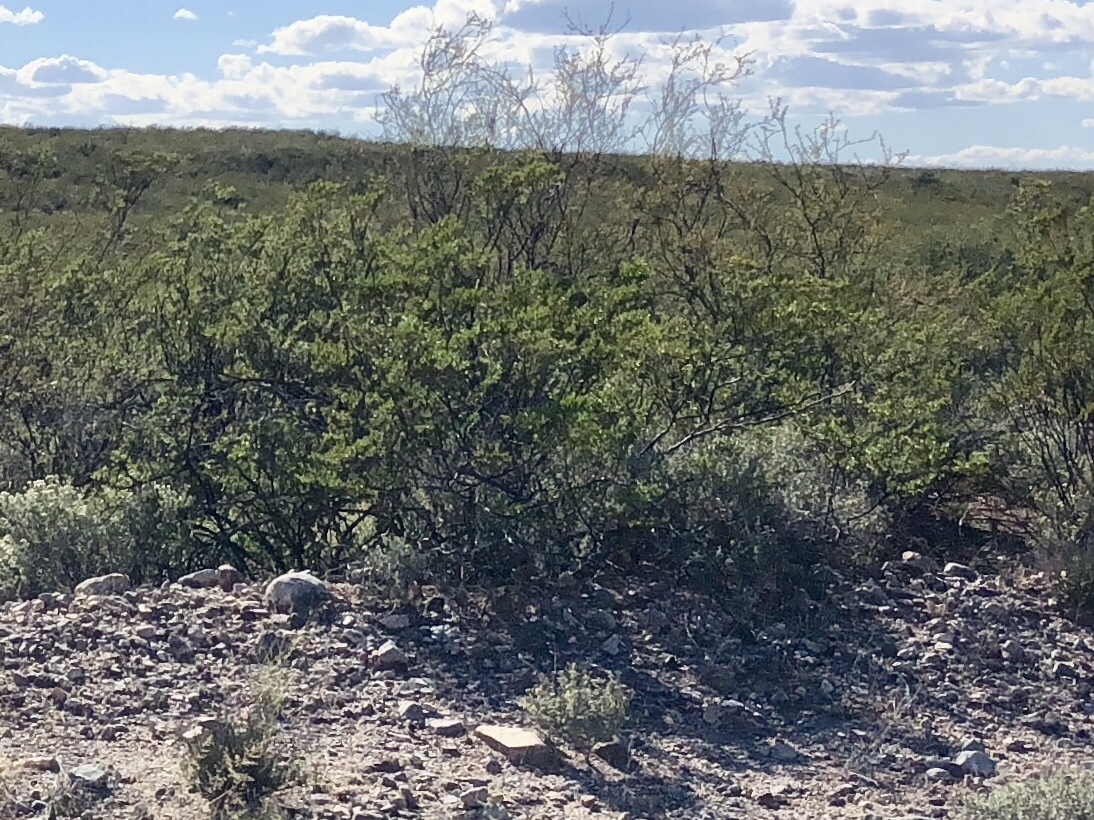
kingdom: Plantae
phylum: Tracheophyta
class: Magnoliopsida
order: Zygophyllales
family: Zygophyllaceae
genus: Larrea
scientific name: Larrea tridentata
